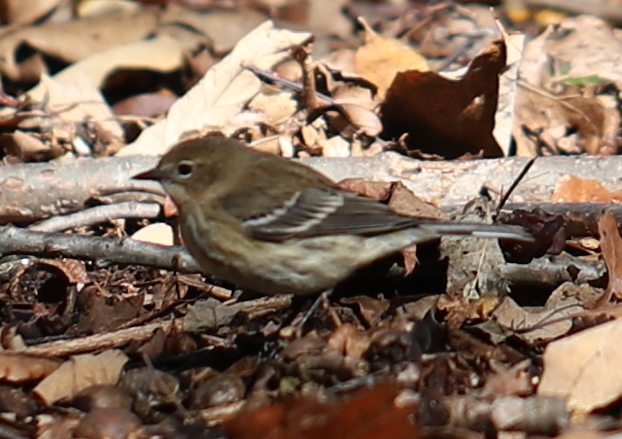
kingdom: Animalia
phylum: Chordata
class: Aves
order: Passeriformes
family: Parulidae
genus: Setophaga
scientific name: Setophaga coronata
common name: Myrtle warbler
